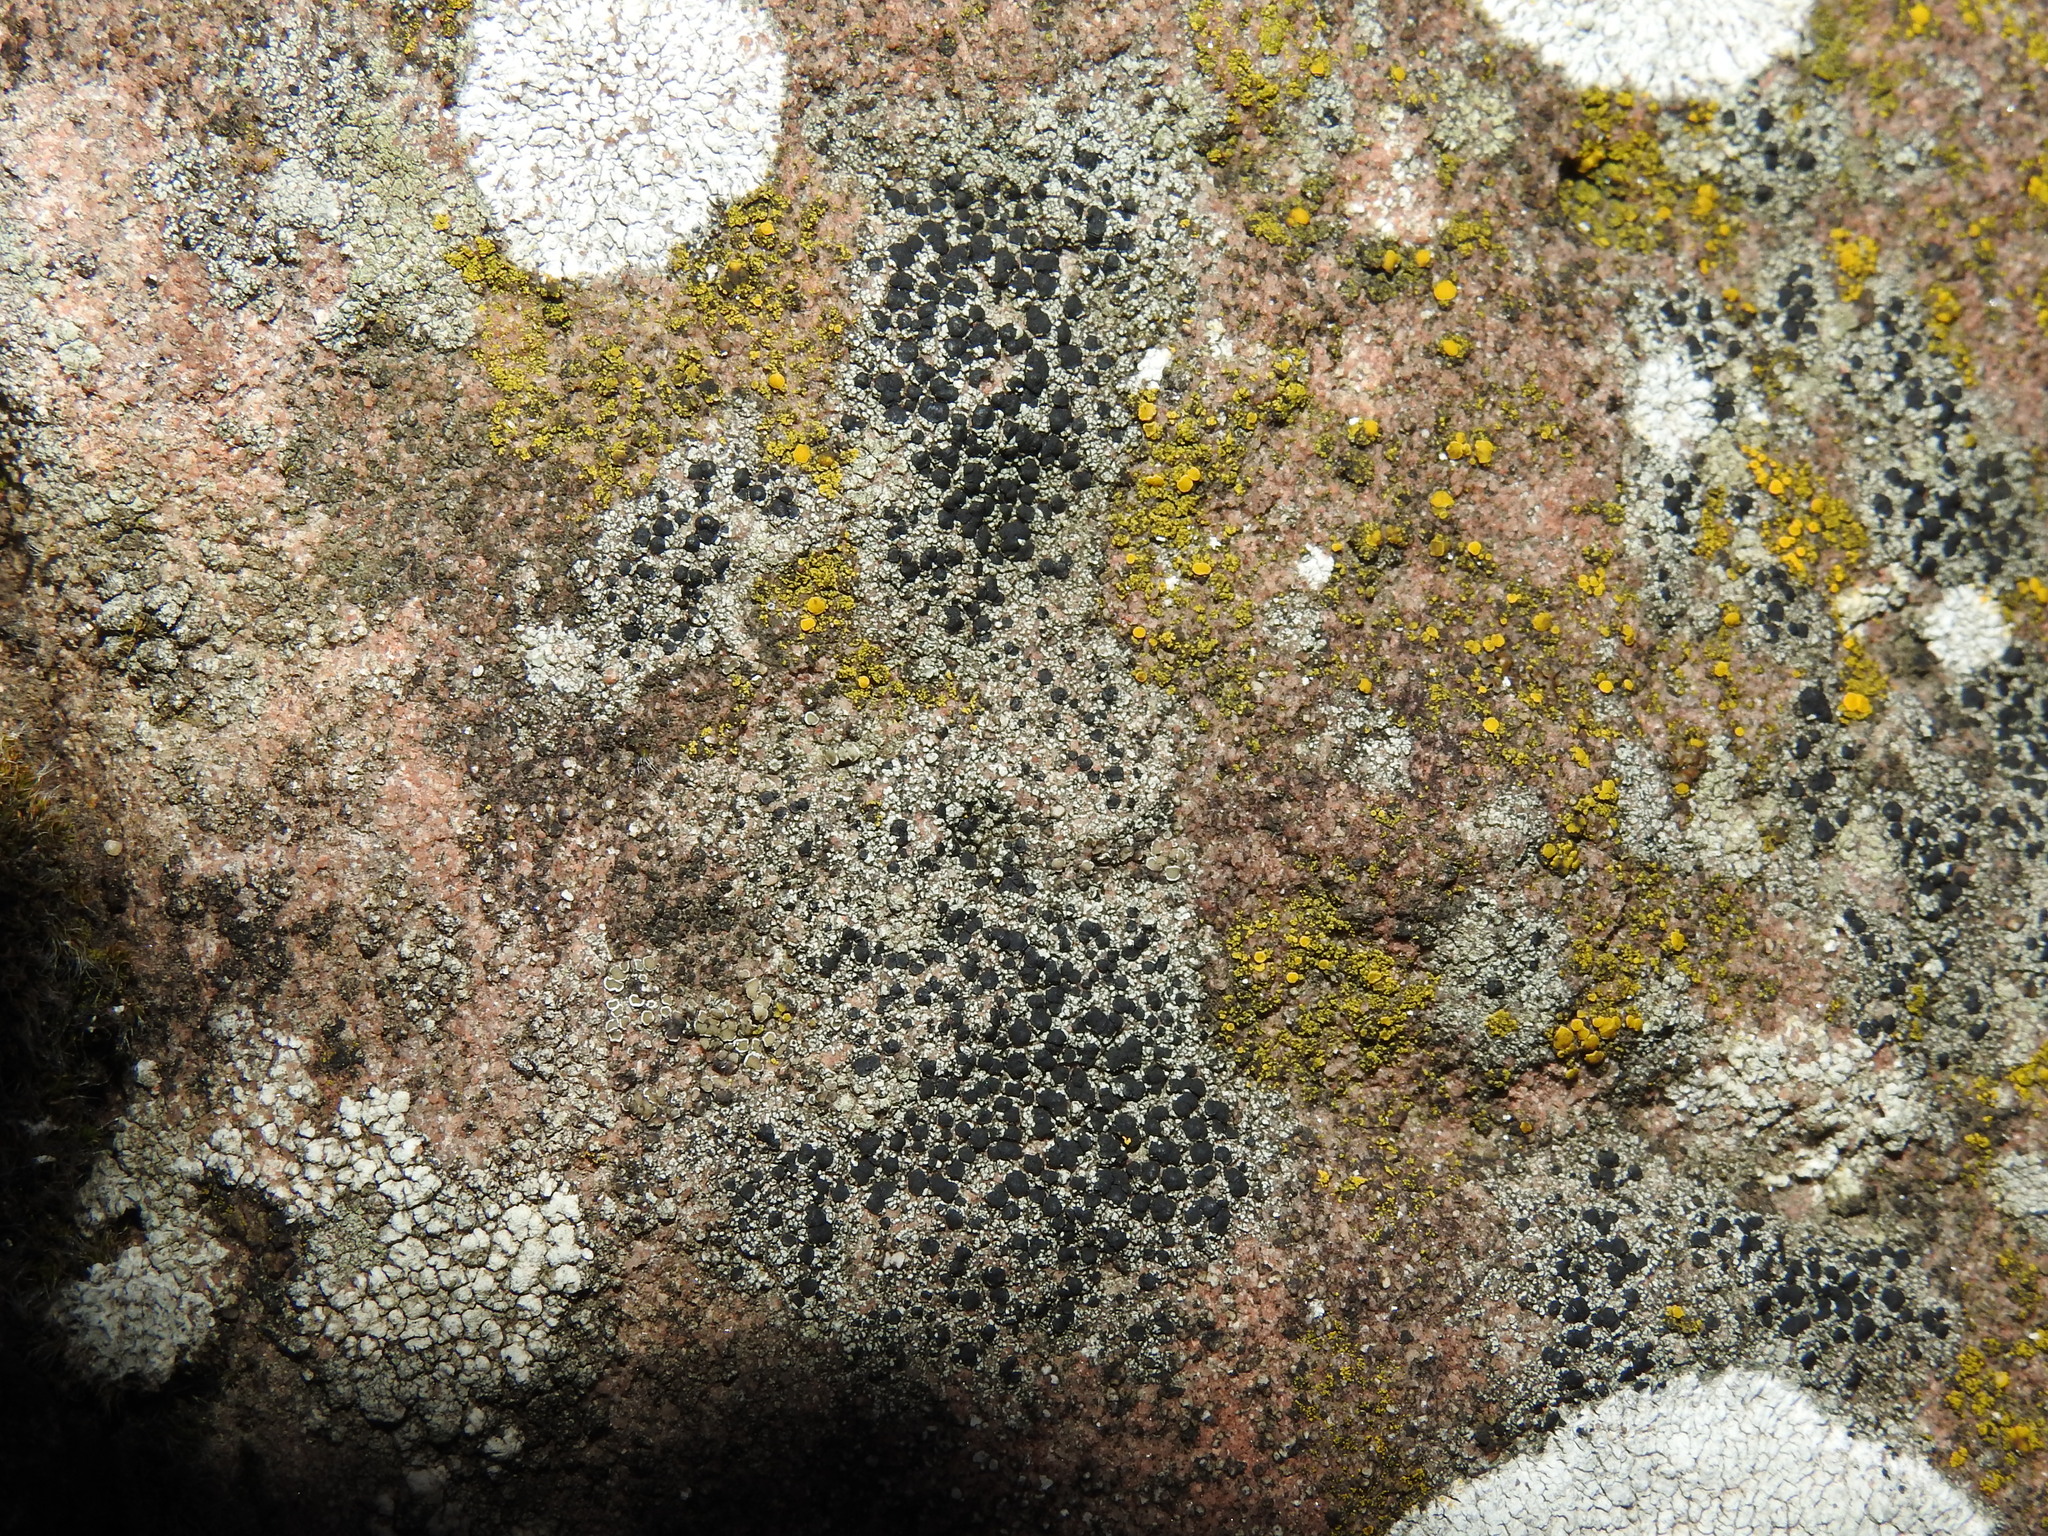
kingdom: Fungi
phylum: Ascomycota
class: Lecanoromycetes
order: Lecanorales
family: Lecanoraceae
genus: Lecidella
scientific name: Lecidella stigmatea
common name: Limestone disc lichen
